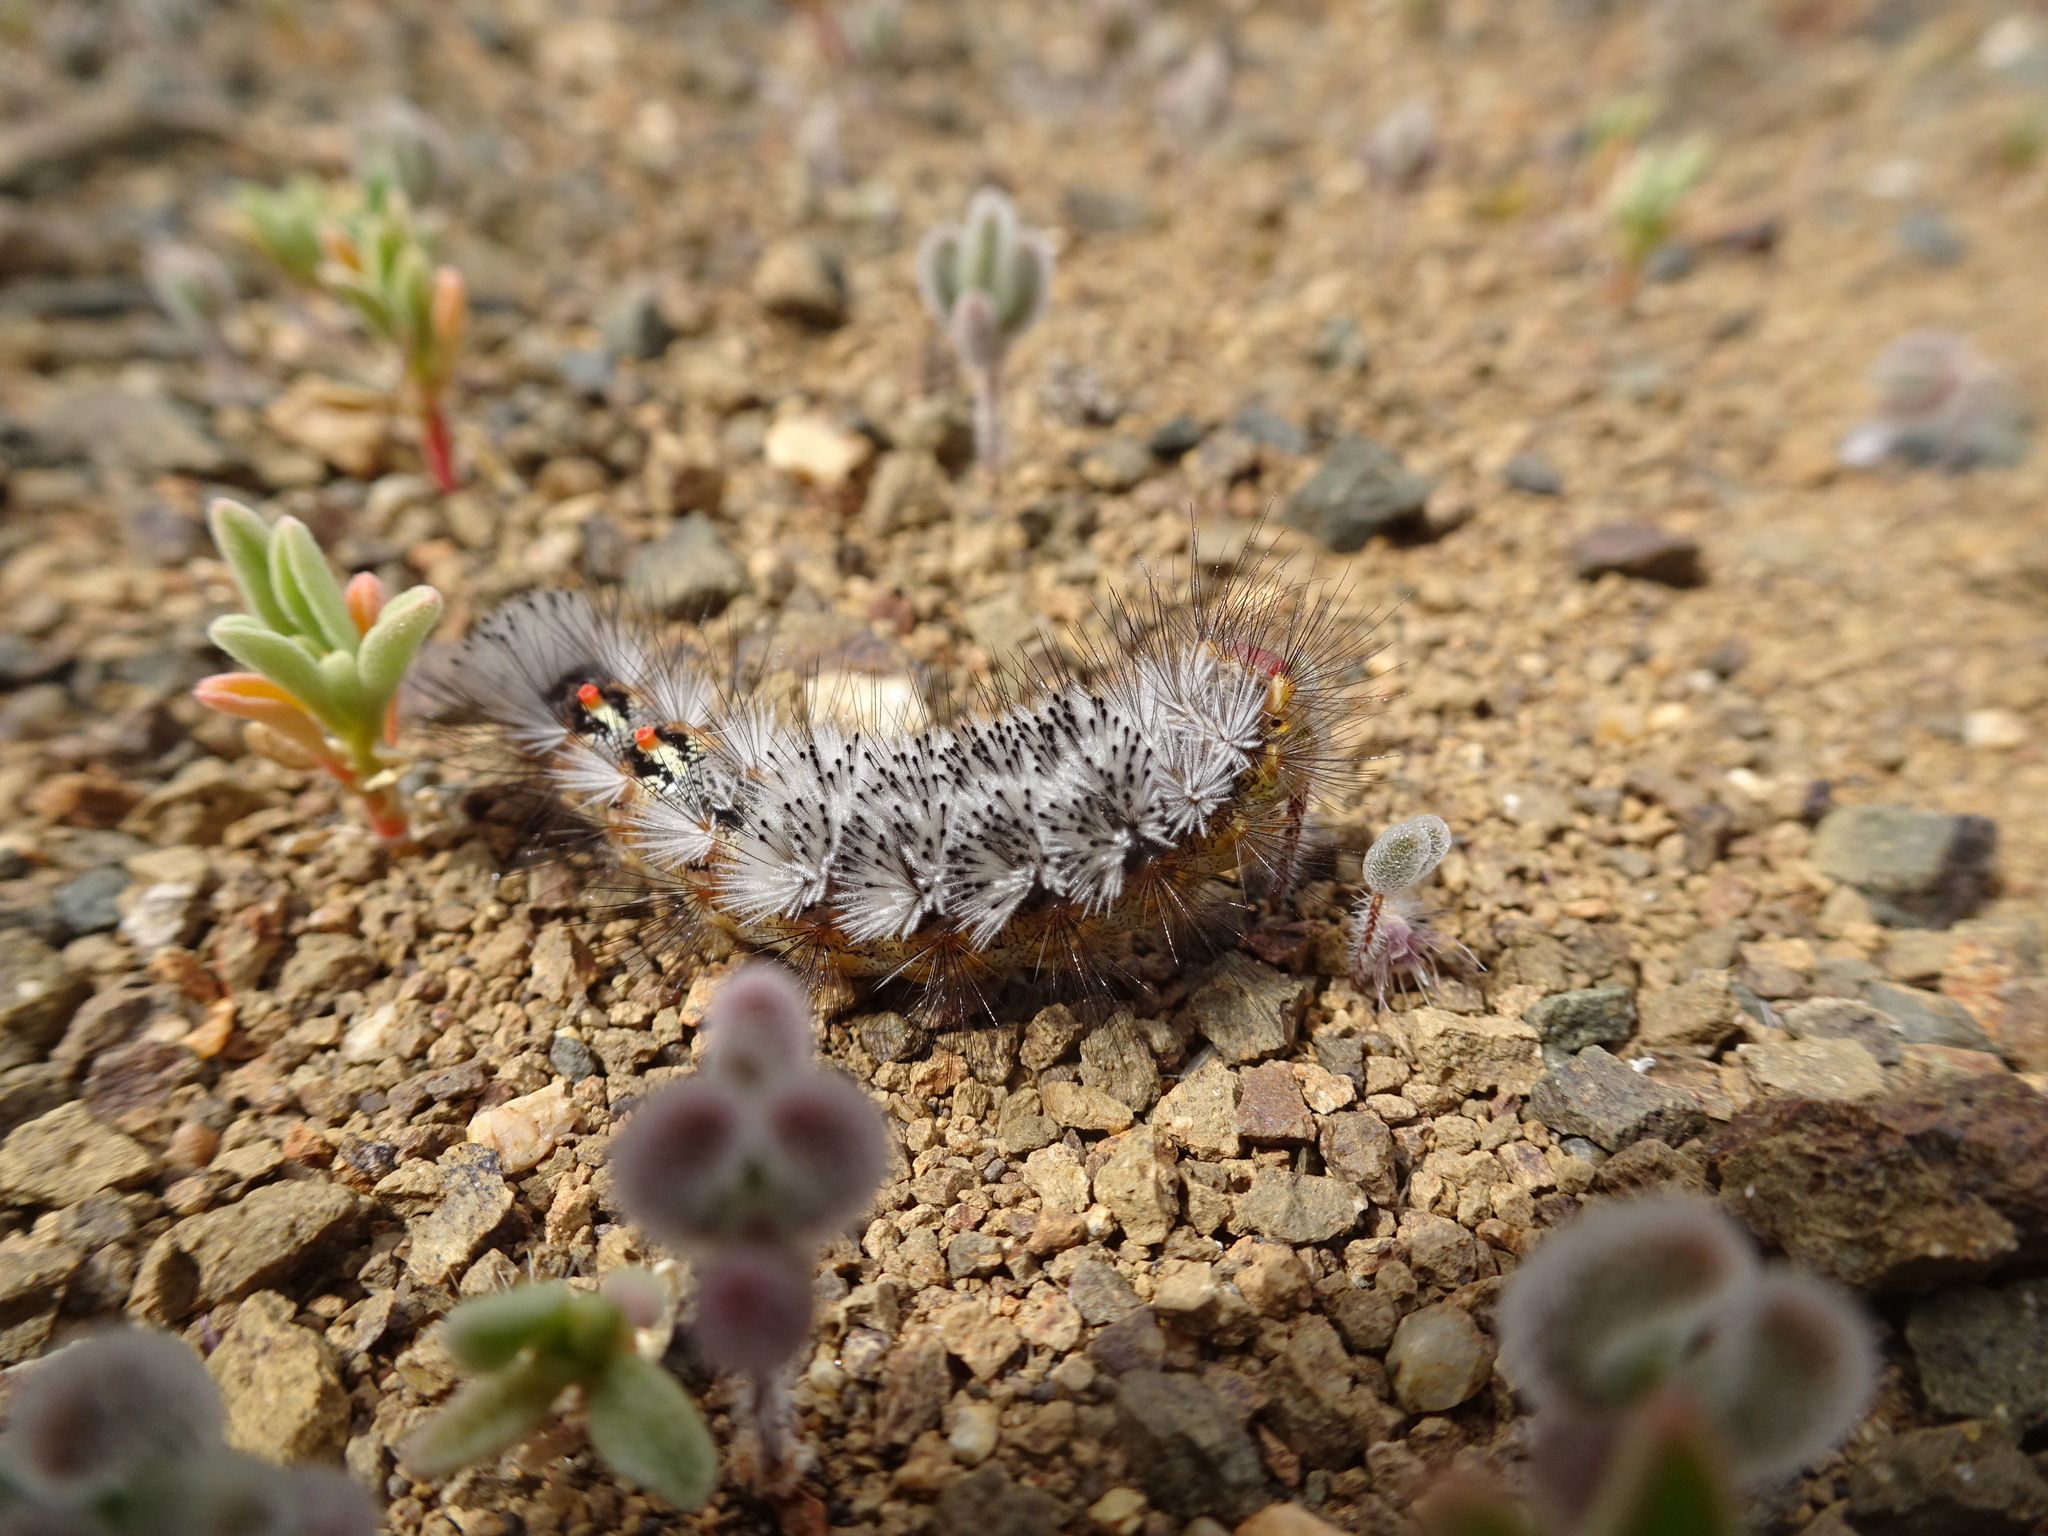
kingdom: Animalia
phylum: Arthropoda
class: Insecta
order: Lepidoptera
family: Erebidae
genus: Orgyia
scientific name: Orgyia tricolor
